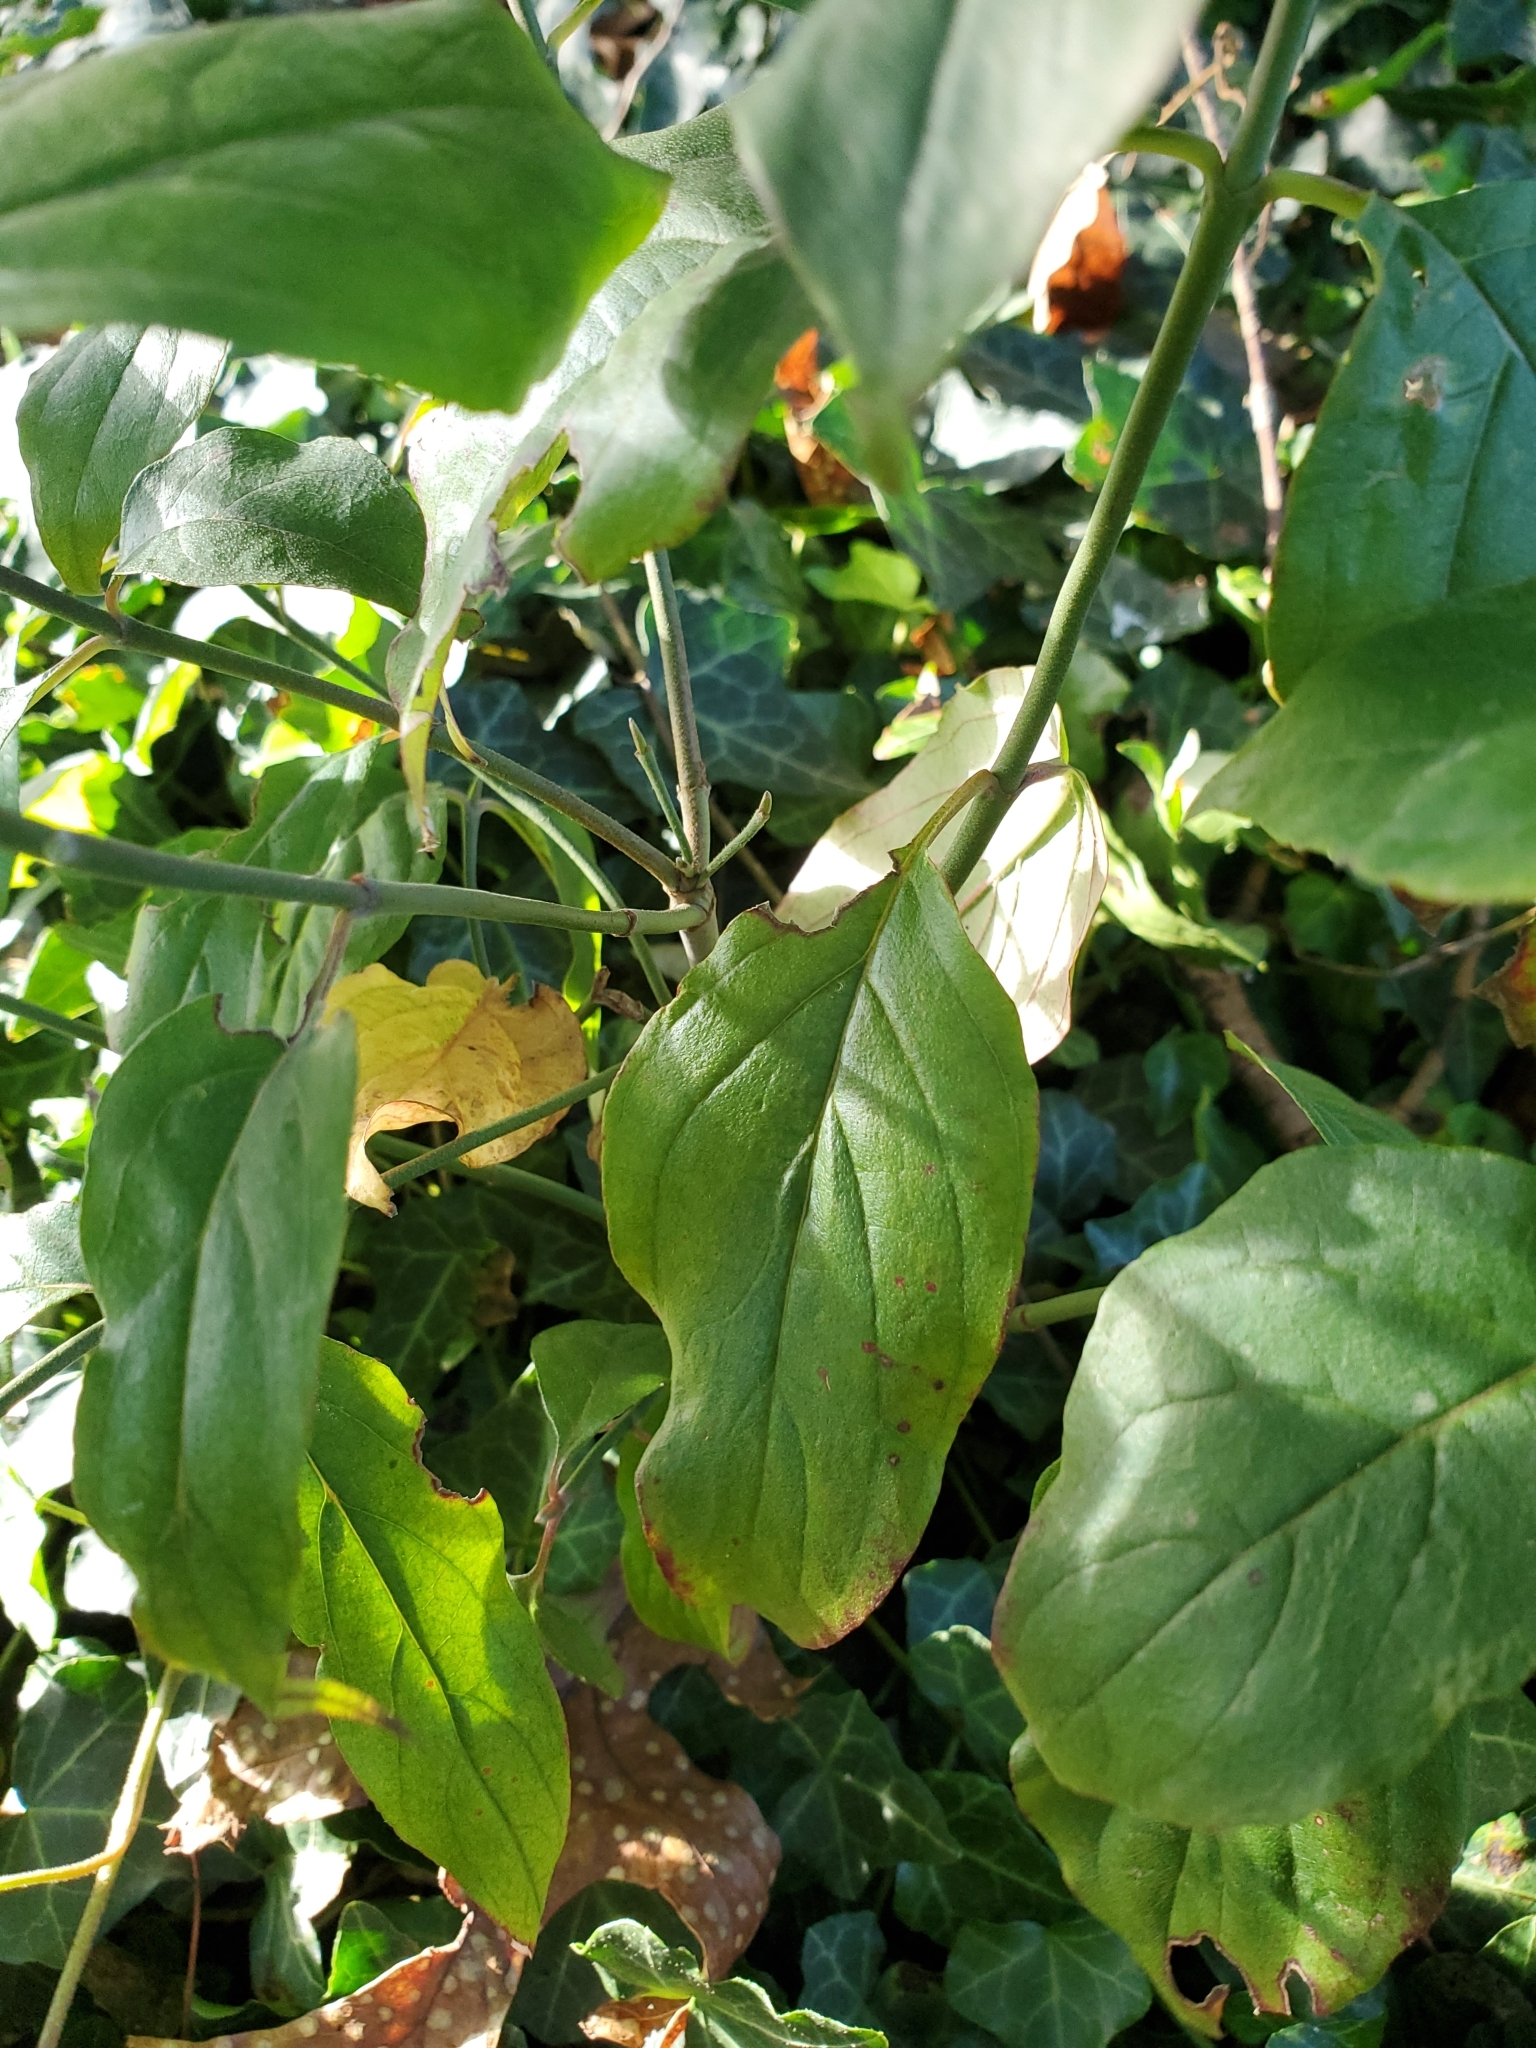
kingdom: Plantae
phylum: Tracheophyta
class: Magnoliopsida
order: Cornales
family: Cornaceae
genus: Cornus
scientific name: Cornus florida
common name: Flowering dogwood
